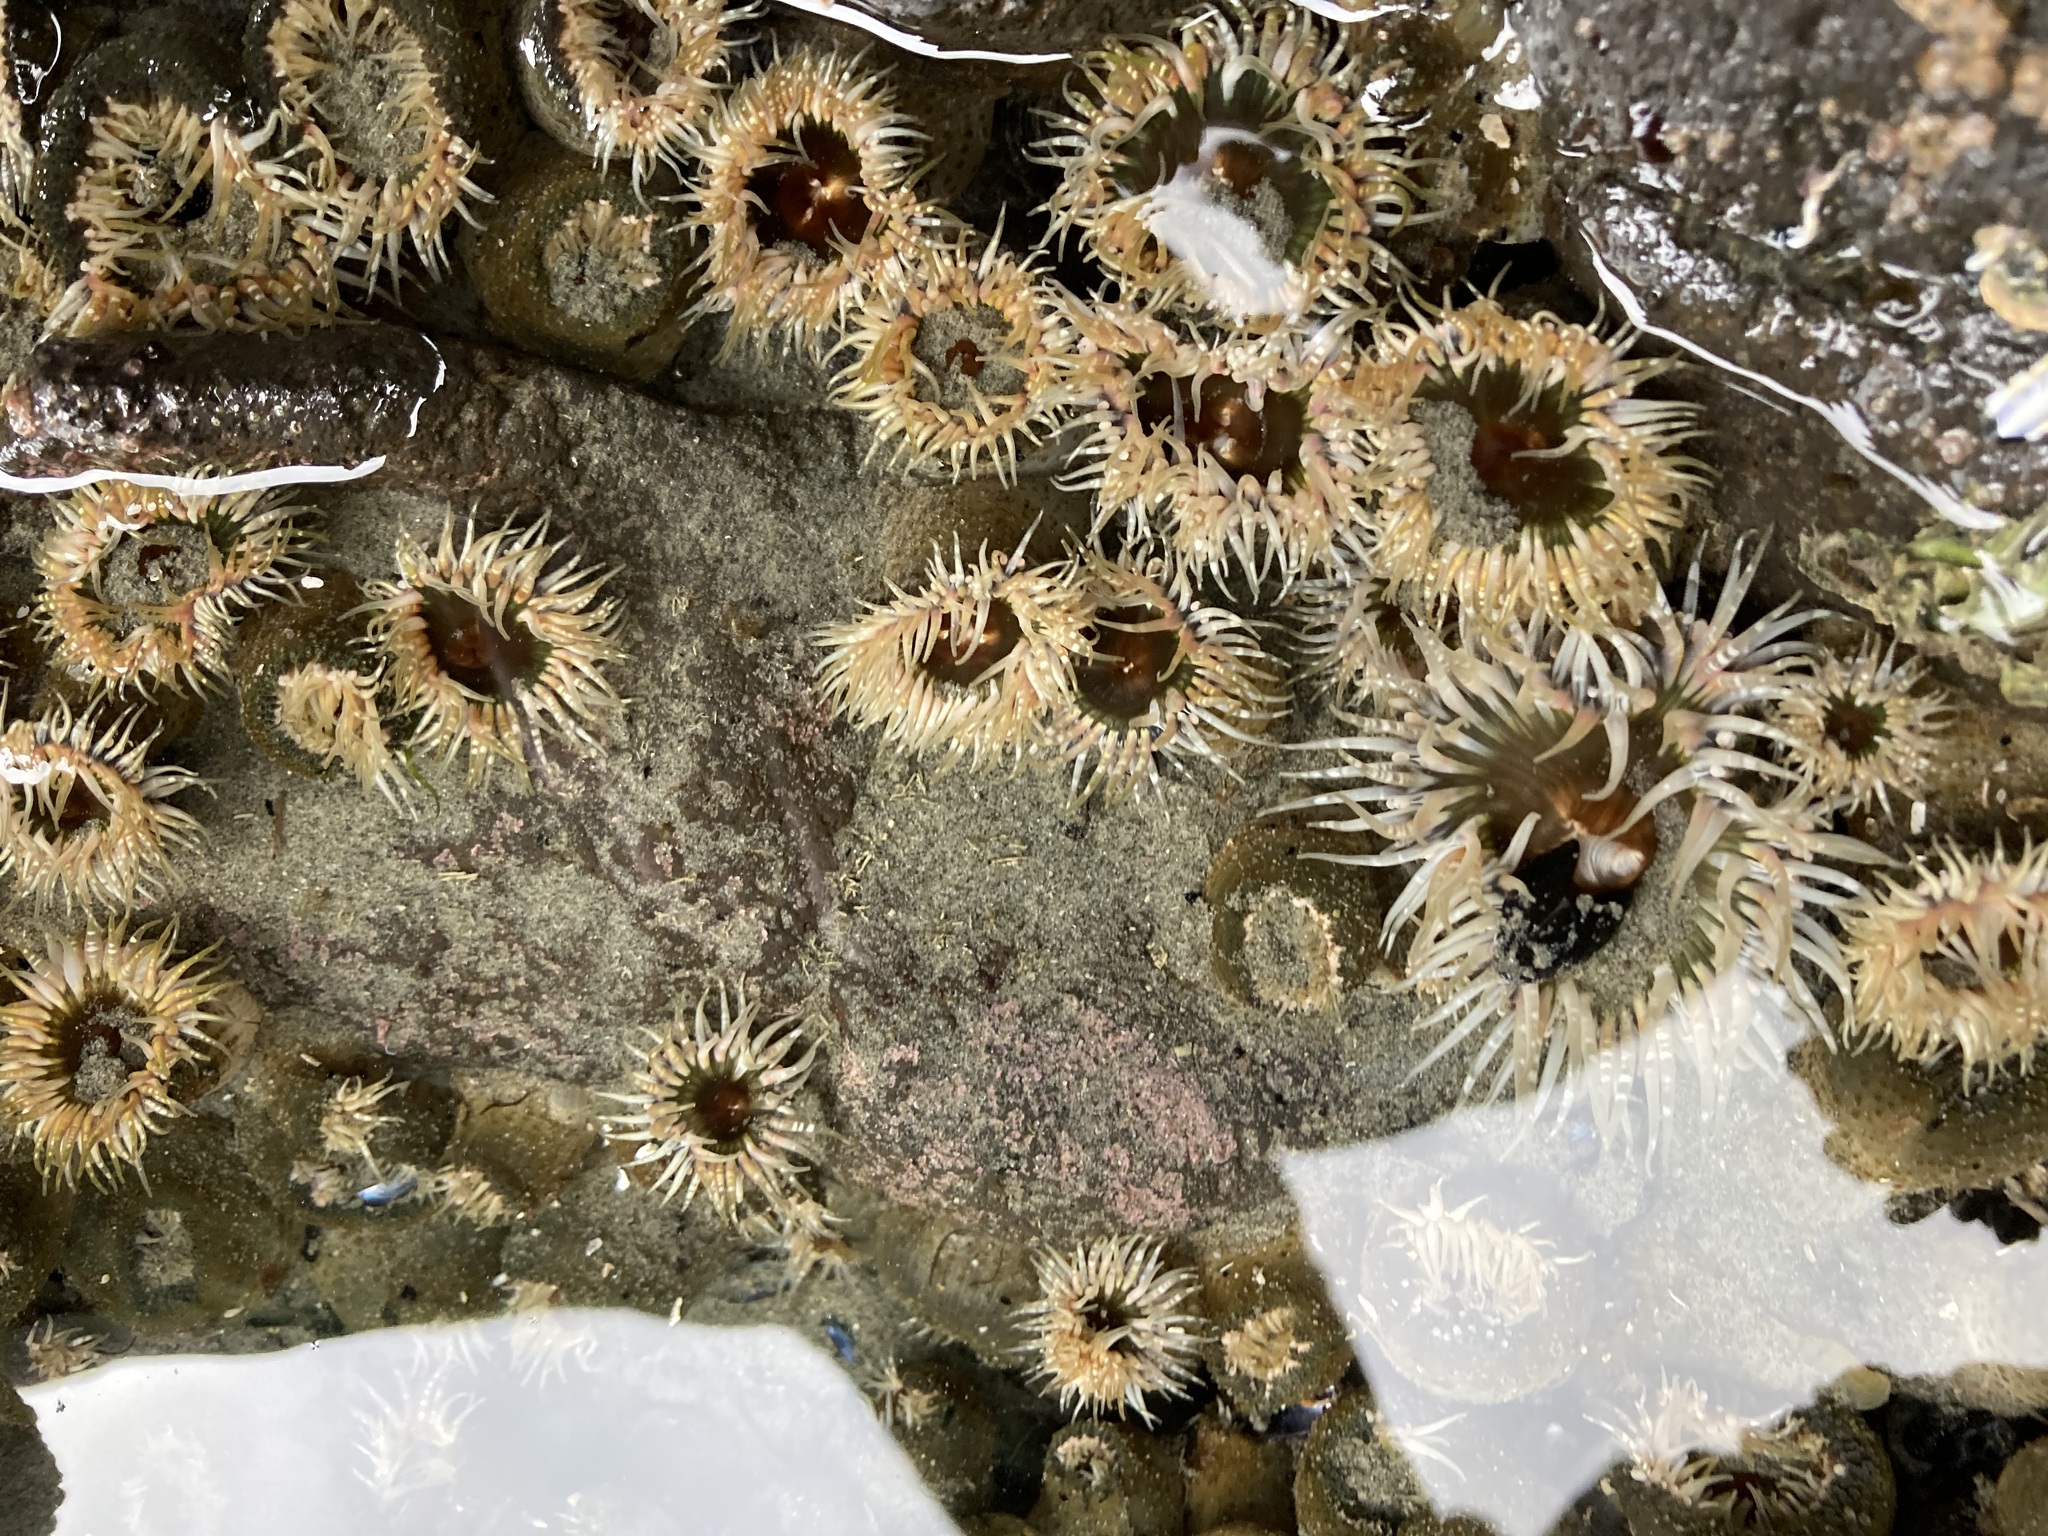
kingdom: Animalia
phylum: Cnidaria
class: Anthozoa
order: Actiniaria
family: Actiniidae
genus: Oulactis
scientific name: Oulactis muscosa
